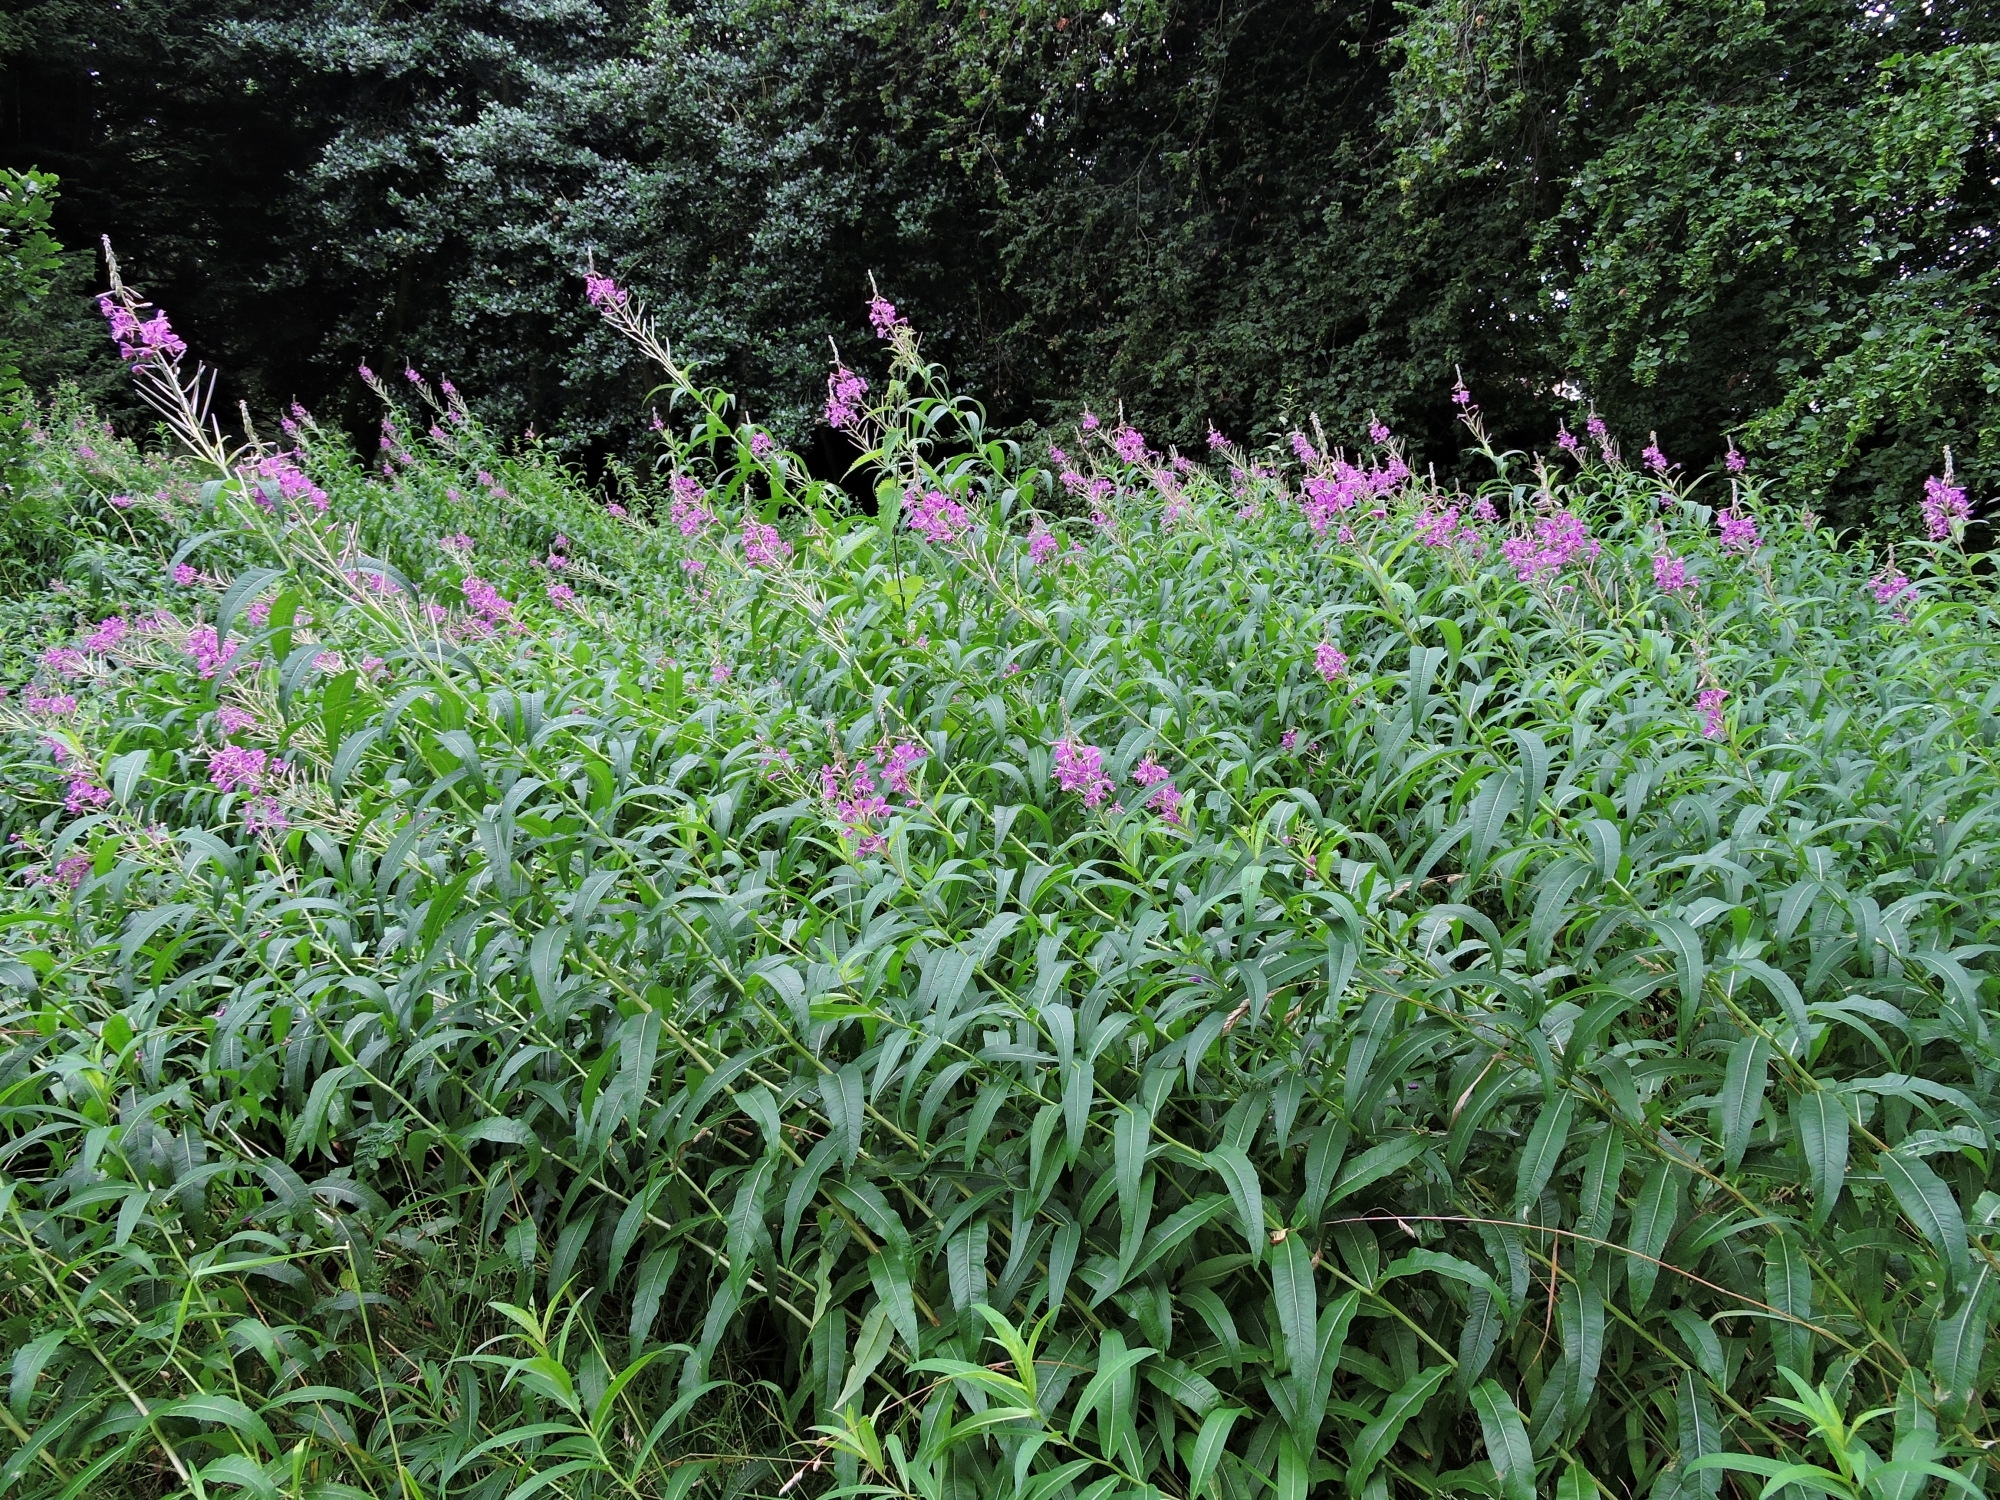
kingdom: Plantae
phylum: Tracheophyta
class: Magnoliopsida
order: Myrtales
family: Onagraceae
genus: Chamaenerion
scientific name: Chamaenerion angustifolium
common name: Fireweed
